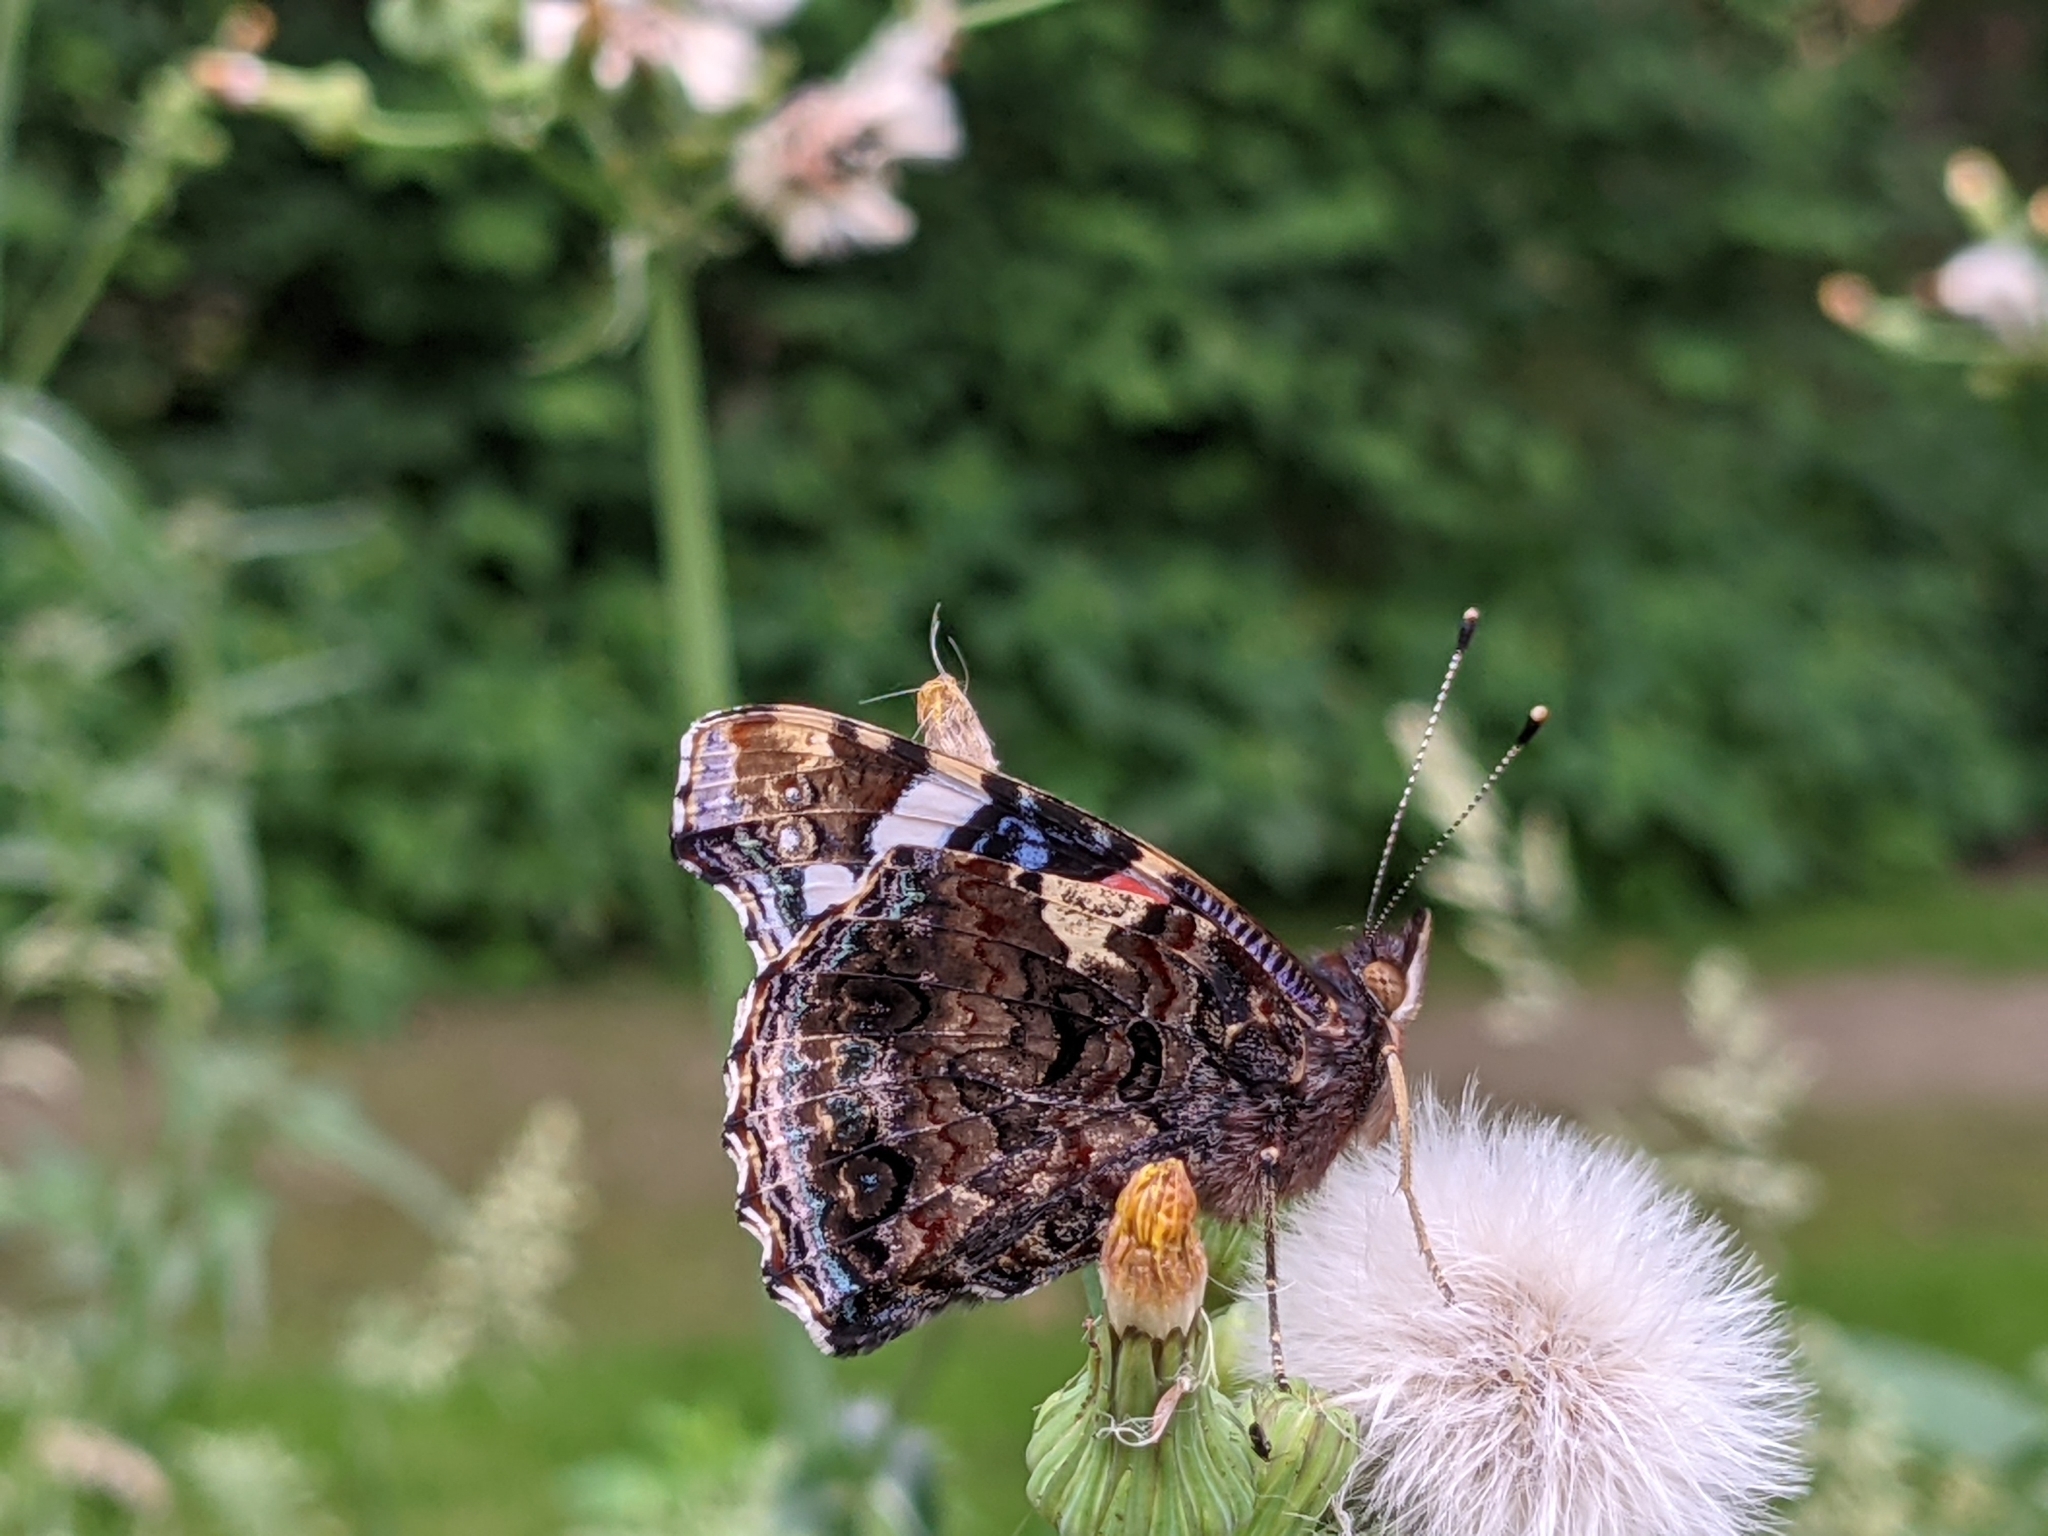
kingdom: Animalia
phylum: Arthropoda
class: Insecta
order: Lepidoptera
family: Nymphalidae
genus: Vanessa
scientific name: Vanessa atalanta
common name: Red admiral
